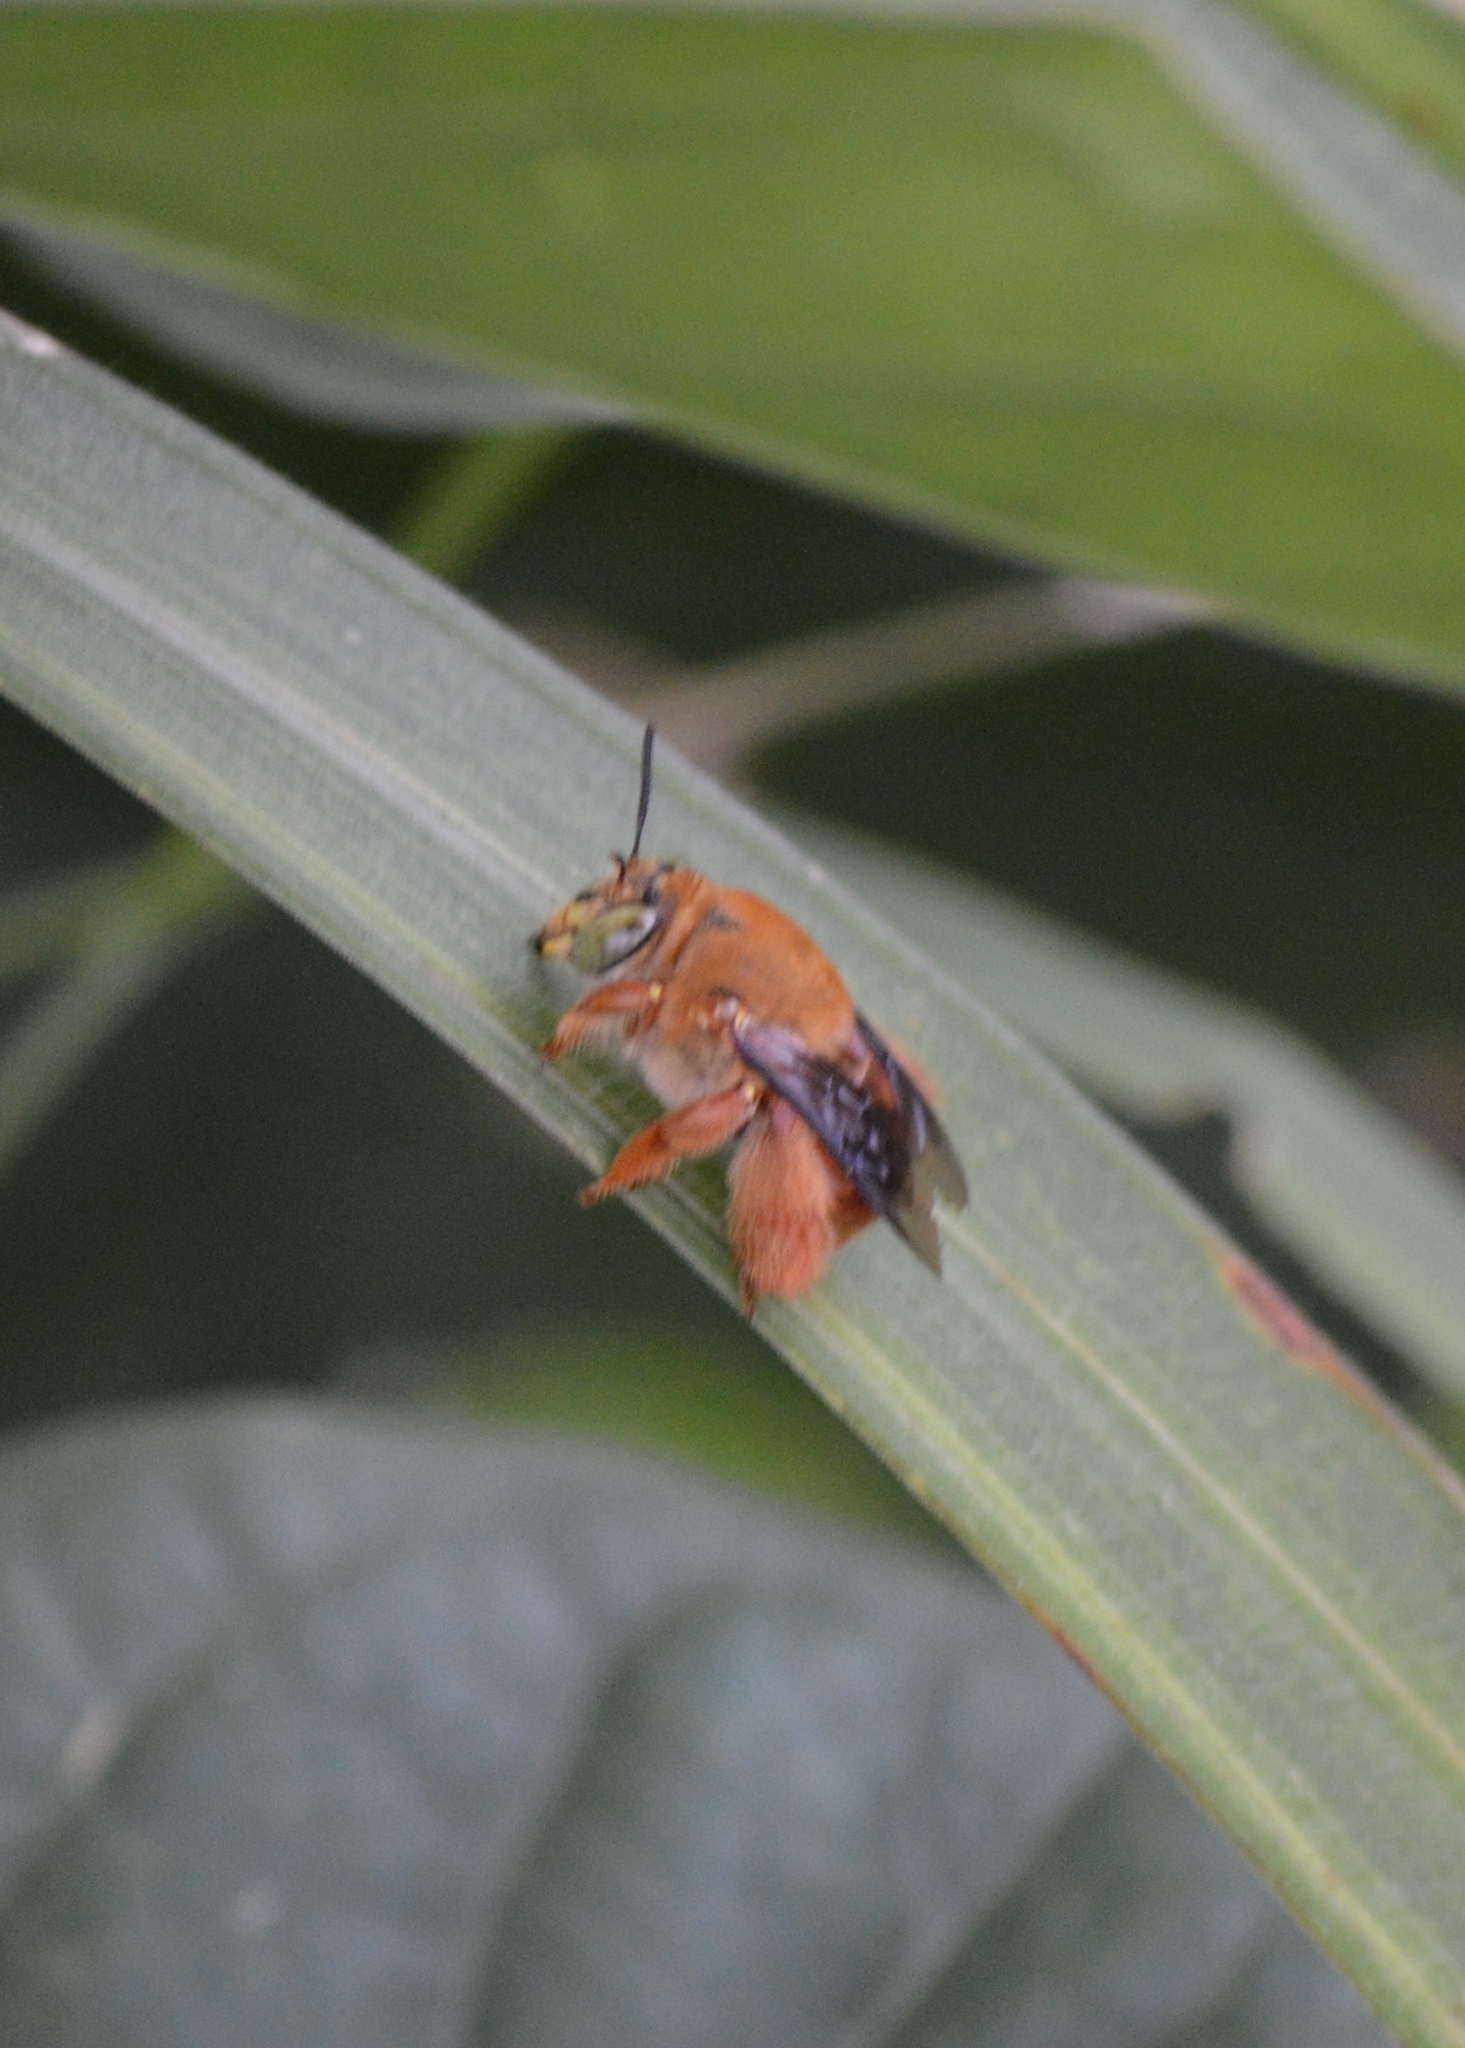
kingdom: Animalia
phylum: Arthropoda
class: Insecta
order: Hymenoptera
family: Apidae
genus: Centris
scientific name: Centris
